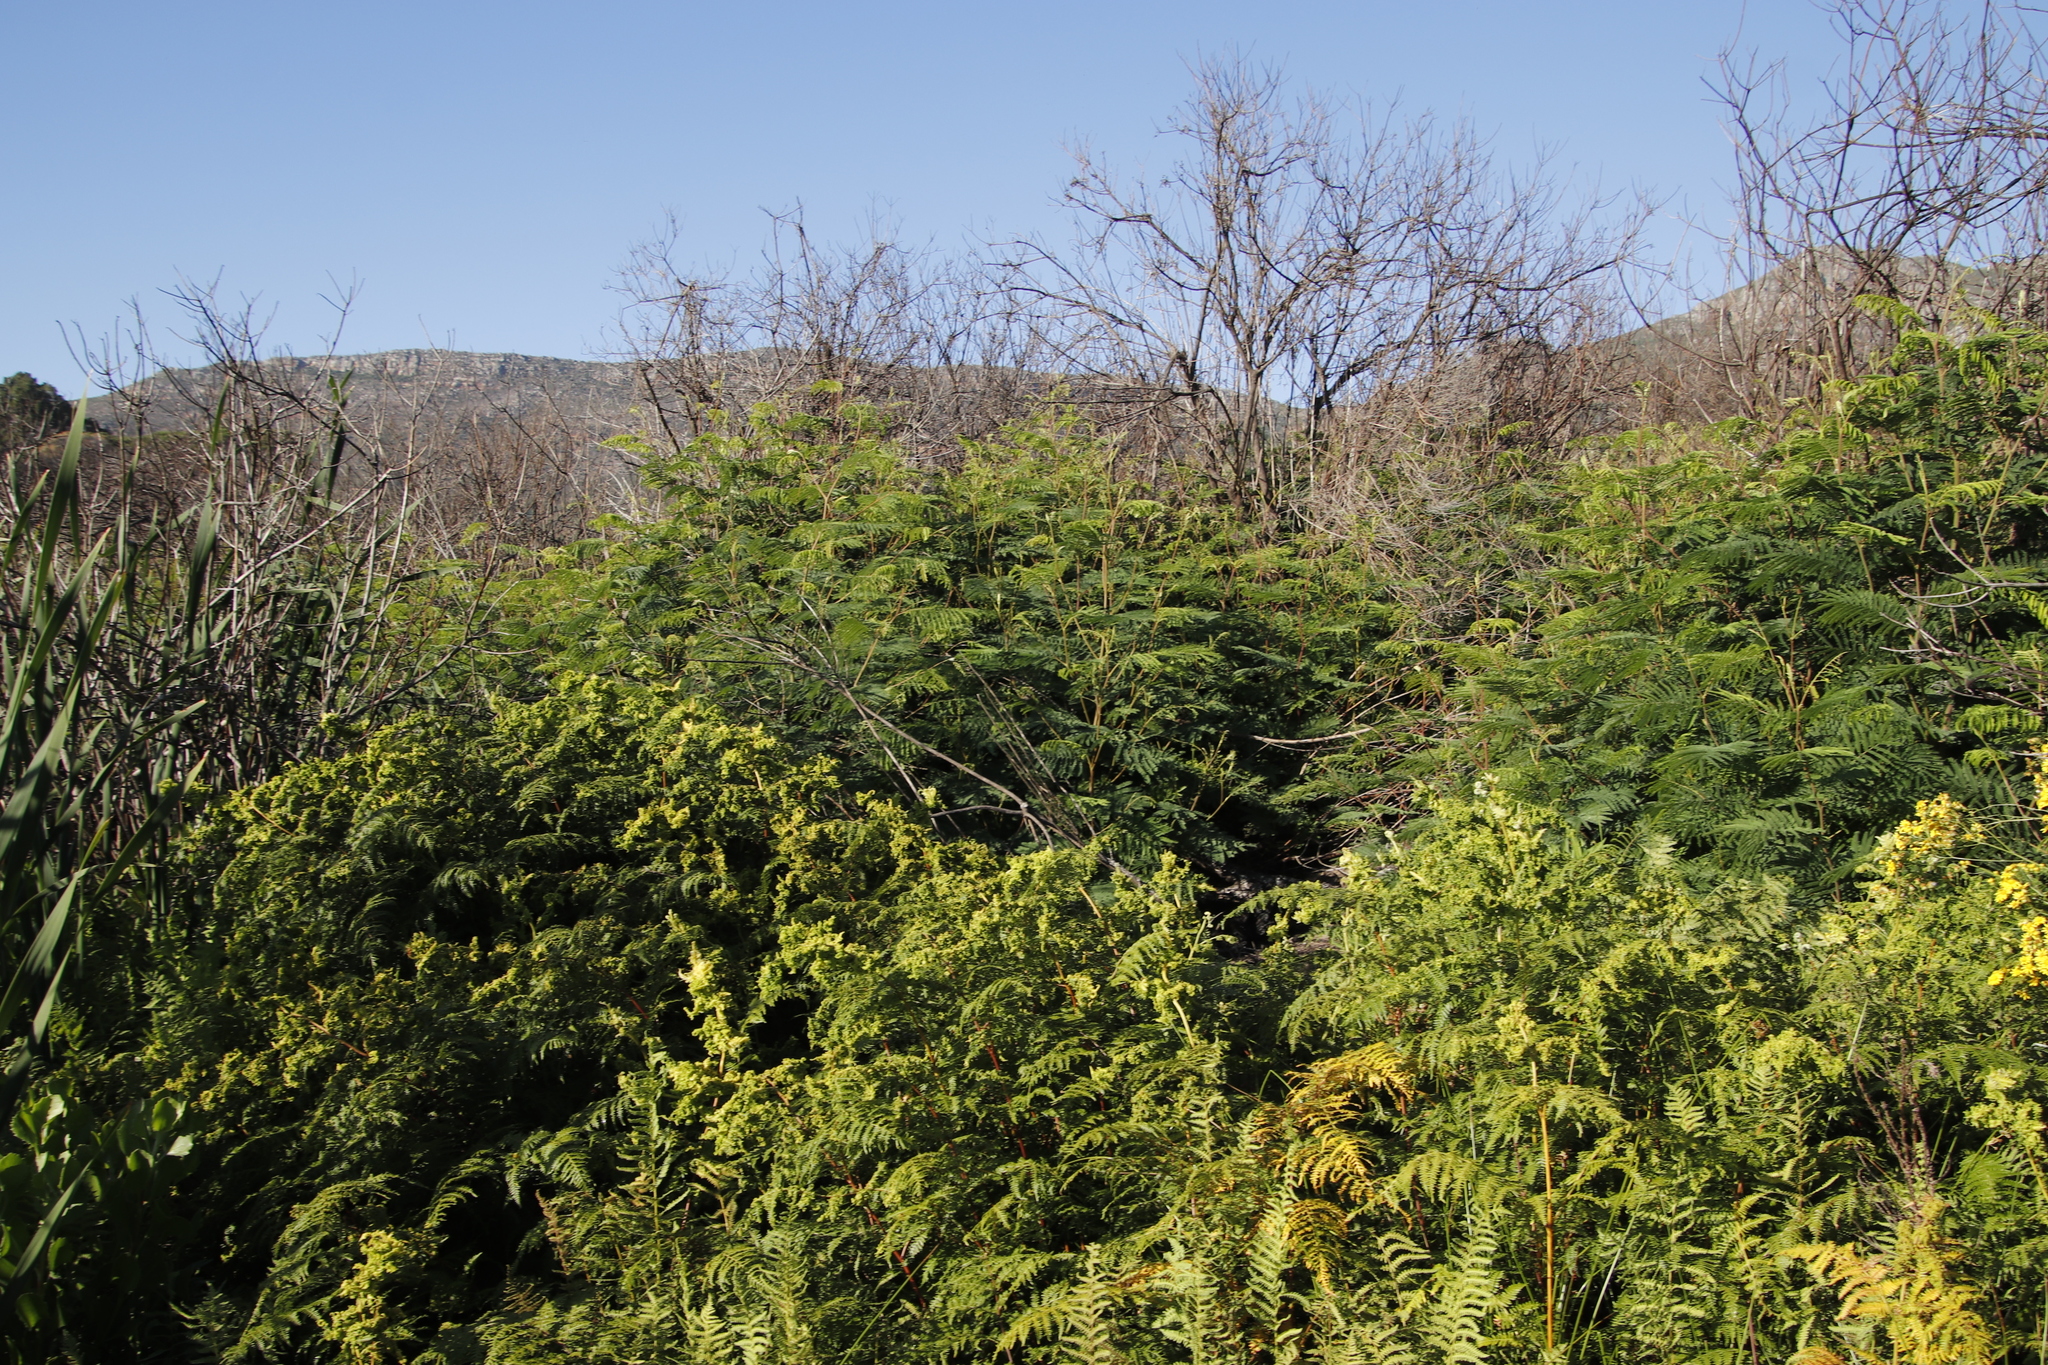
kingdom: Plantae
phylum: Tracheophyta
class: Magnoliopsida
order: Fabales
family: Fabaceae
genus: Paraserianthes
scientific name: Paraserianthes lophantha
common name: Plume albizia
